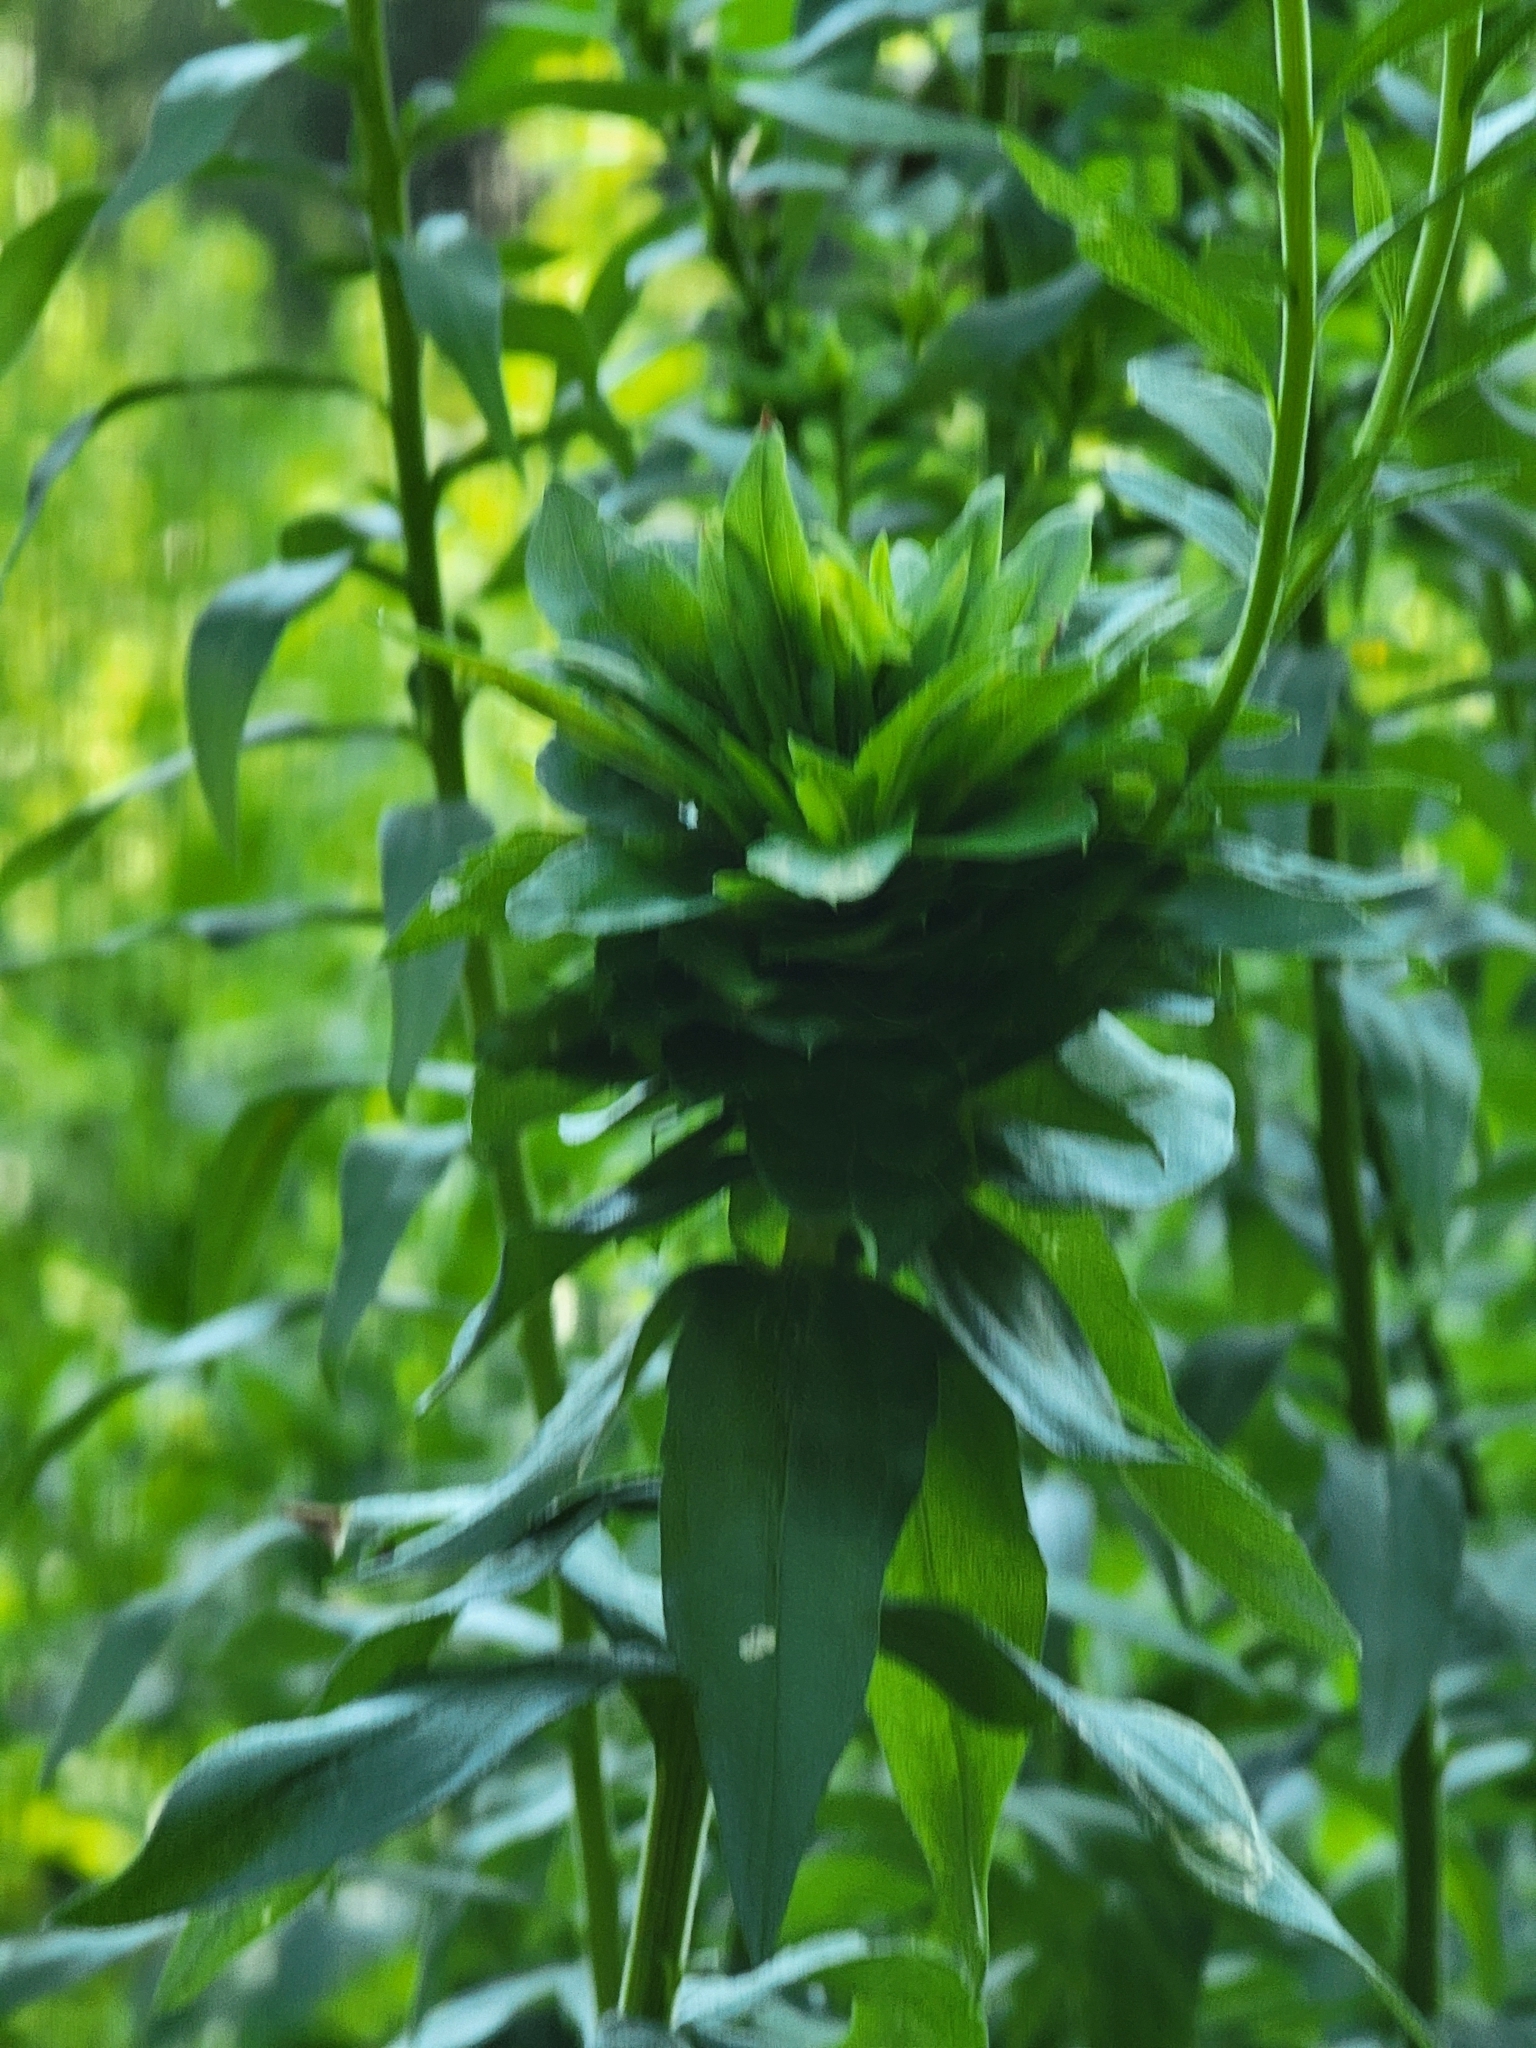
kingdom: Animalia
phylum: Arthropoda
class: Insecta
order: Diptera
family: Cecidomyiidae
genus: Rhopalomyia
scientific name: Rhopalomyia solidaginis
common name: Goldenrod bunch gall midge
